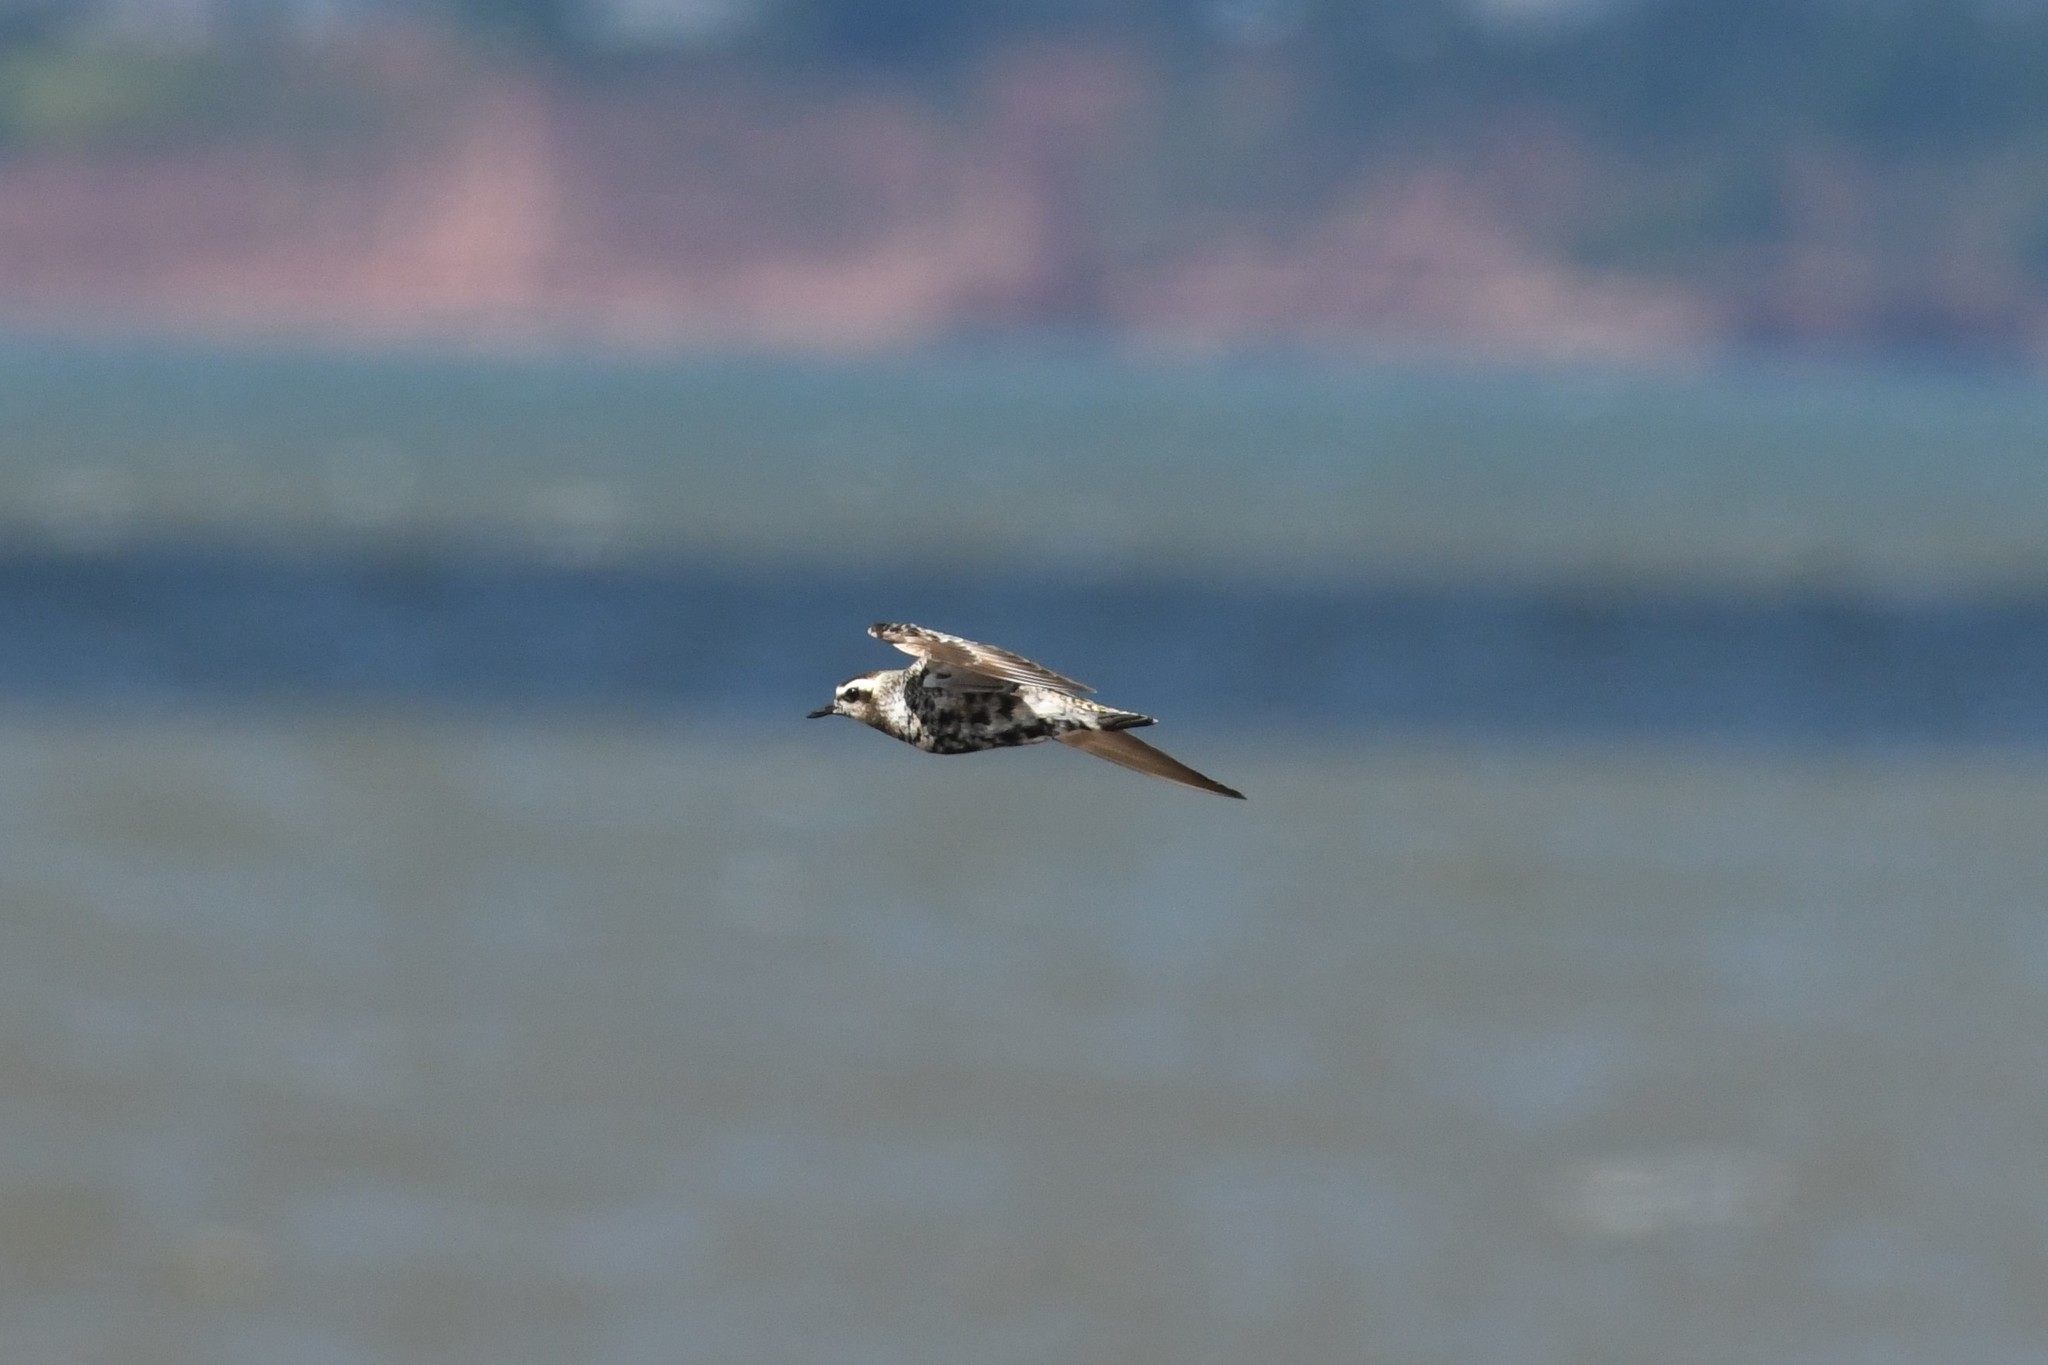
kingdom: Animalia
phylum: Chordata
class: Aves
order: Charadriiformes
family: Charadriidae
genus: Pluvialis
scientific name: Pluvialis dominica
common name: American golden plover
